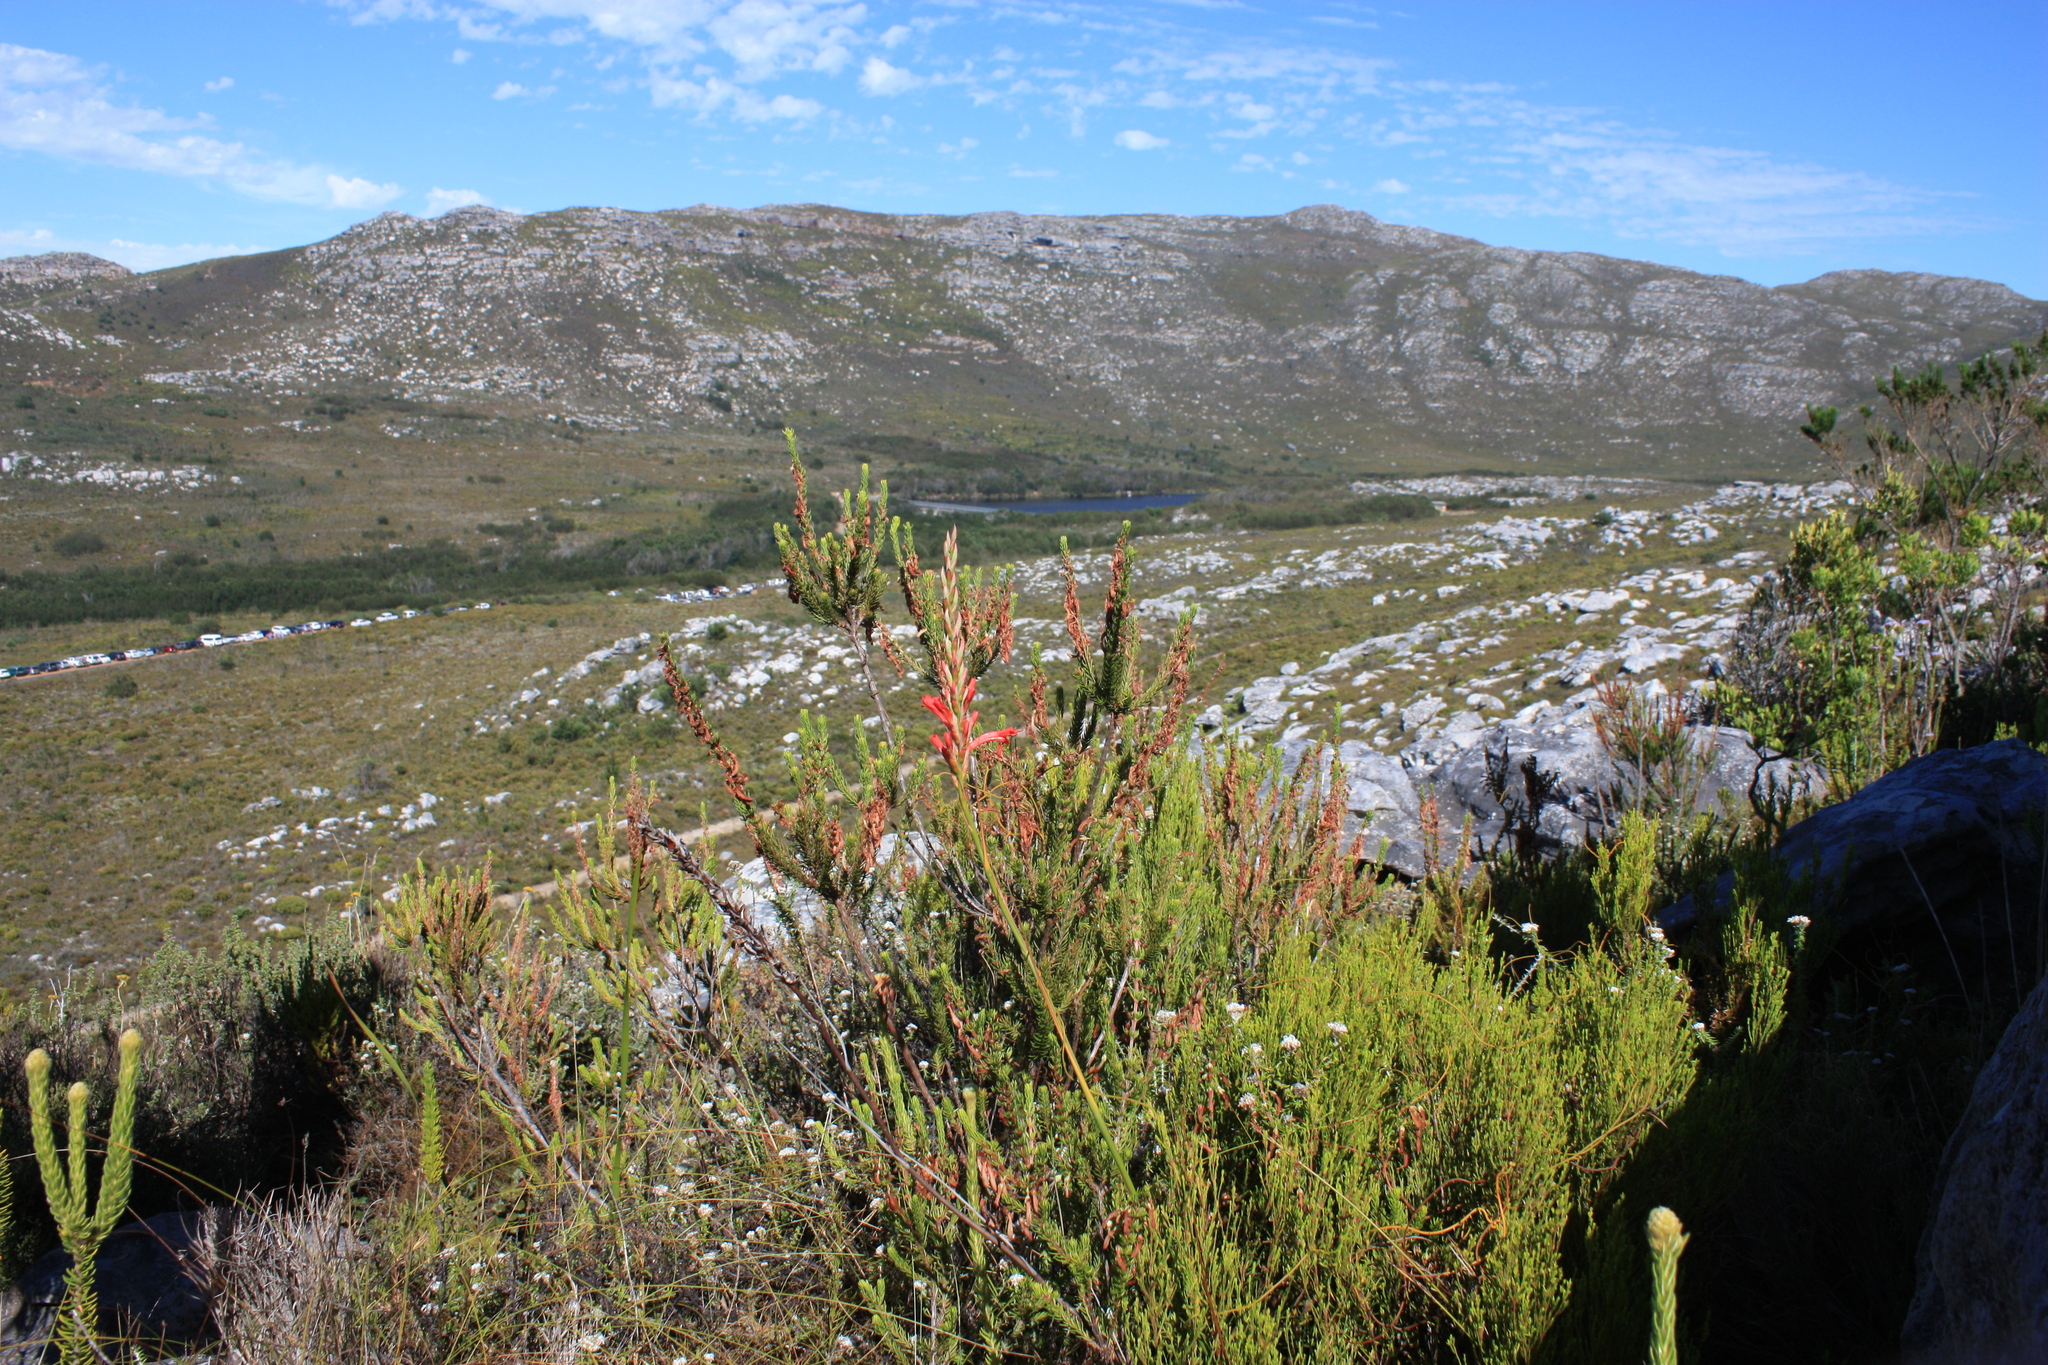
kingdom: Plantae
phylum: Tracheophyta
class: Liliopsida
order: Asparagales
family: Iridaceae
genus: Tritoniopsis
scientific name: Tritoniopsis triticea
